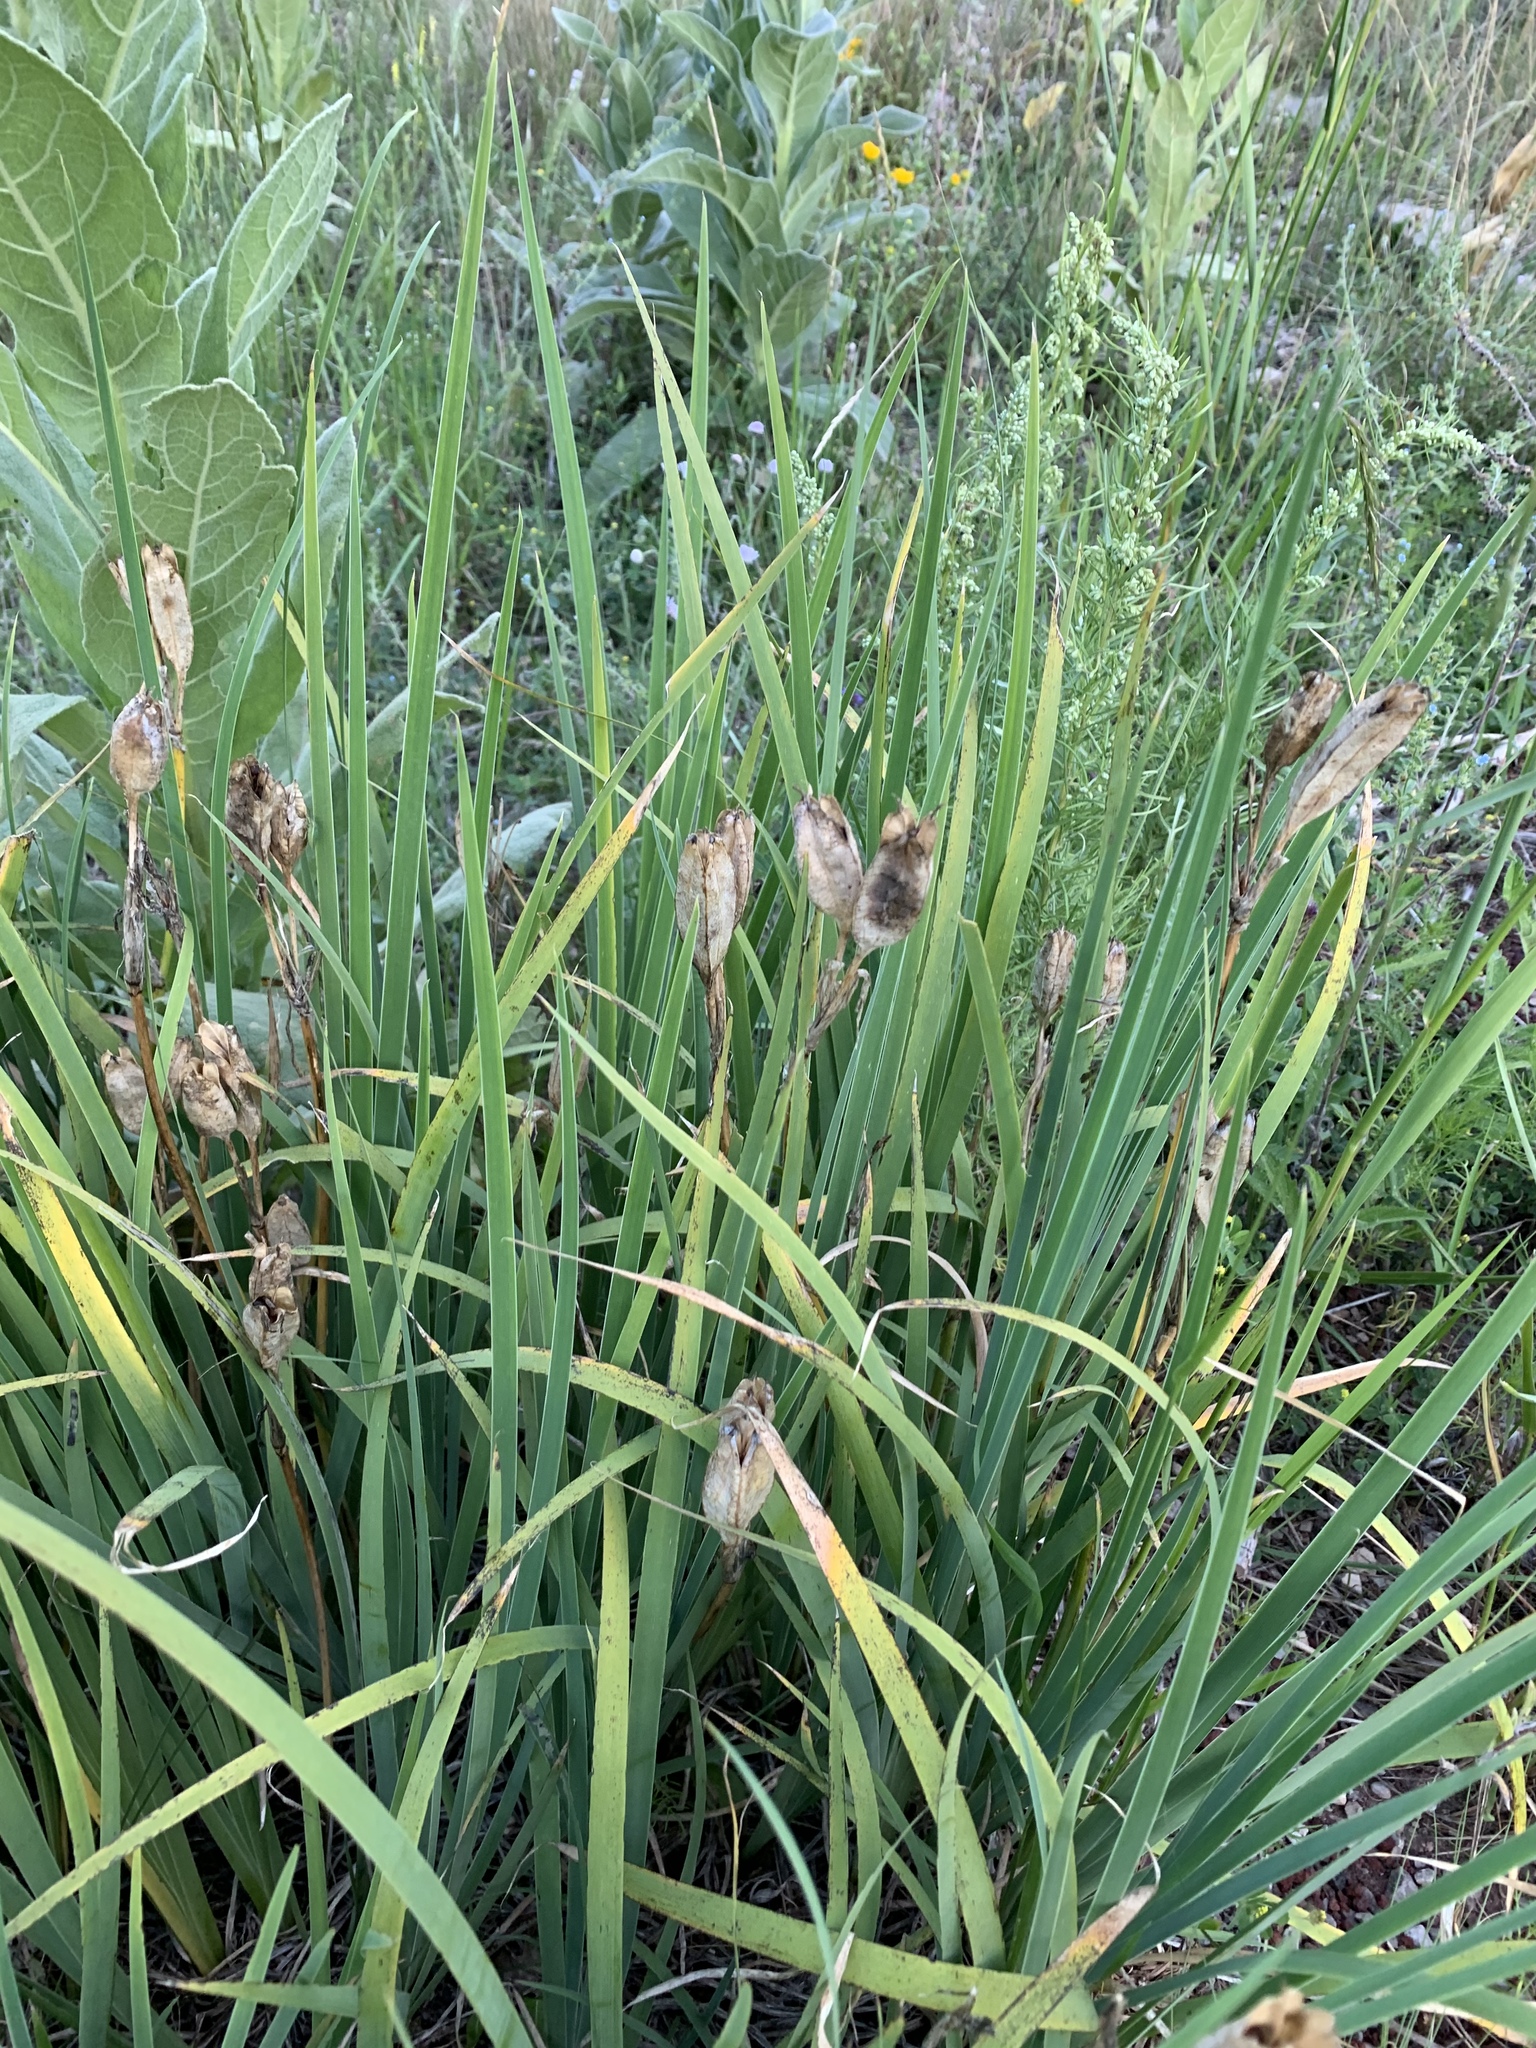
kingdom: Plantae
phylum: Tracheophyta
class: Liliopsida
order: Asparagales
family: Iridaceae
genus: Iris
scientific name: Iris missouriensis
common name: Rocky mountain iris
